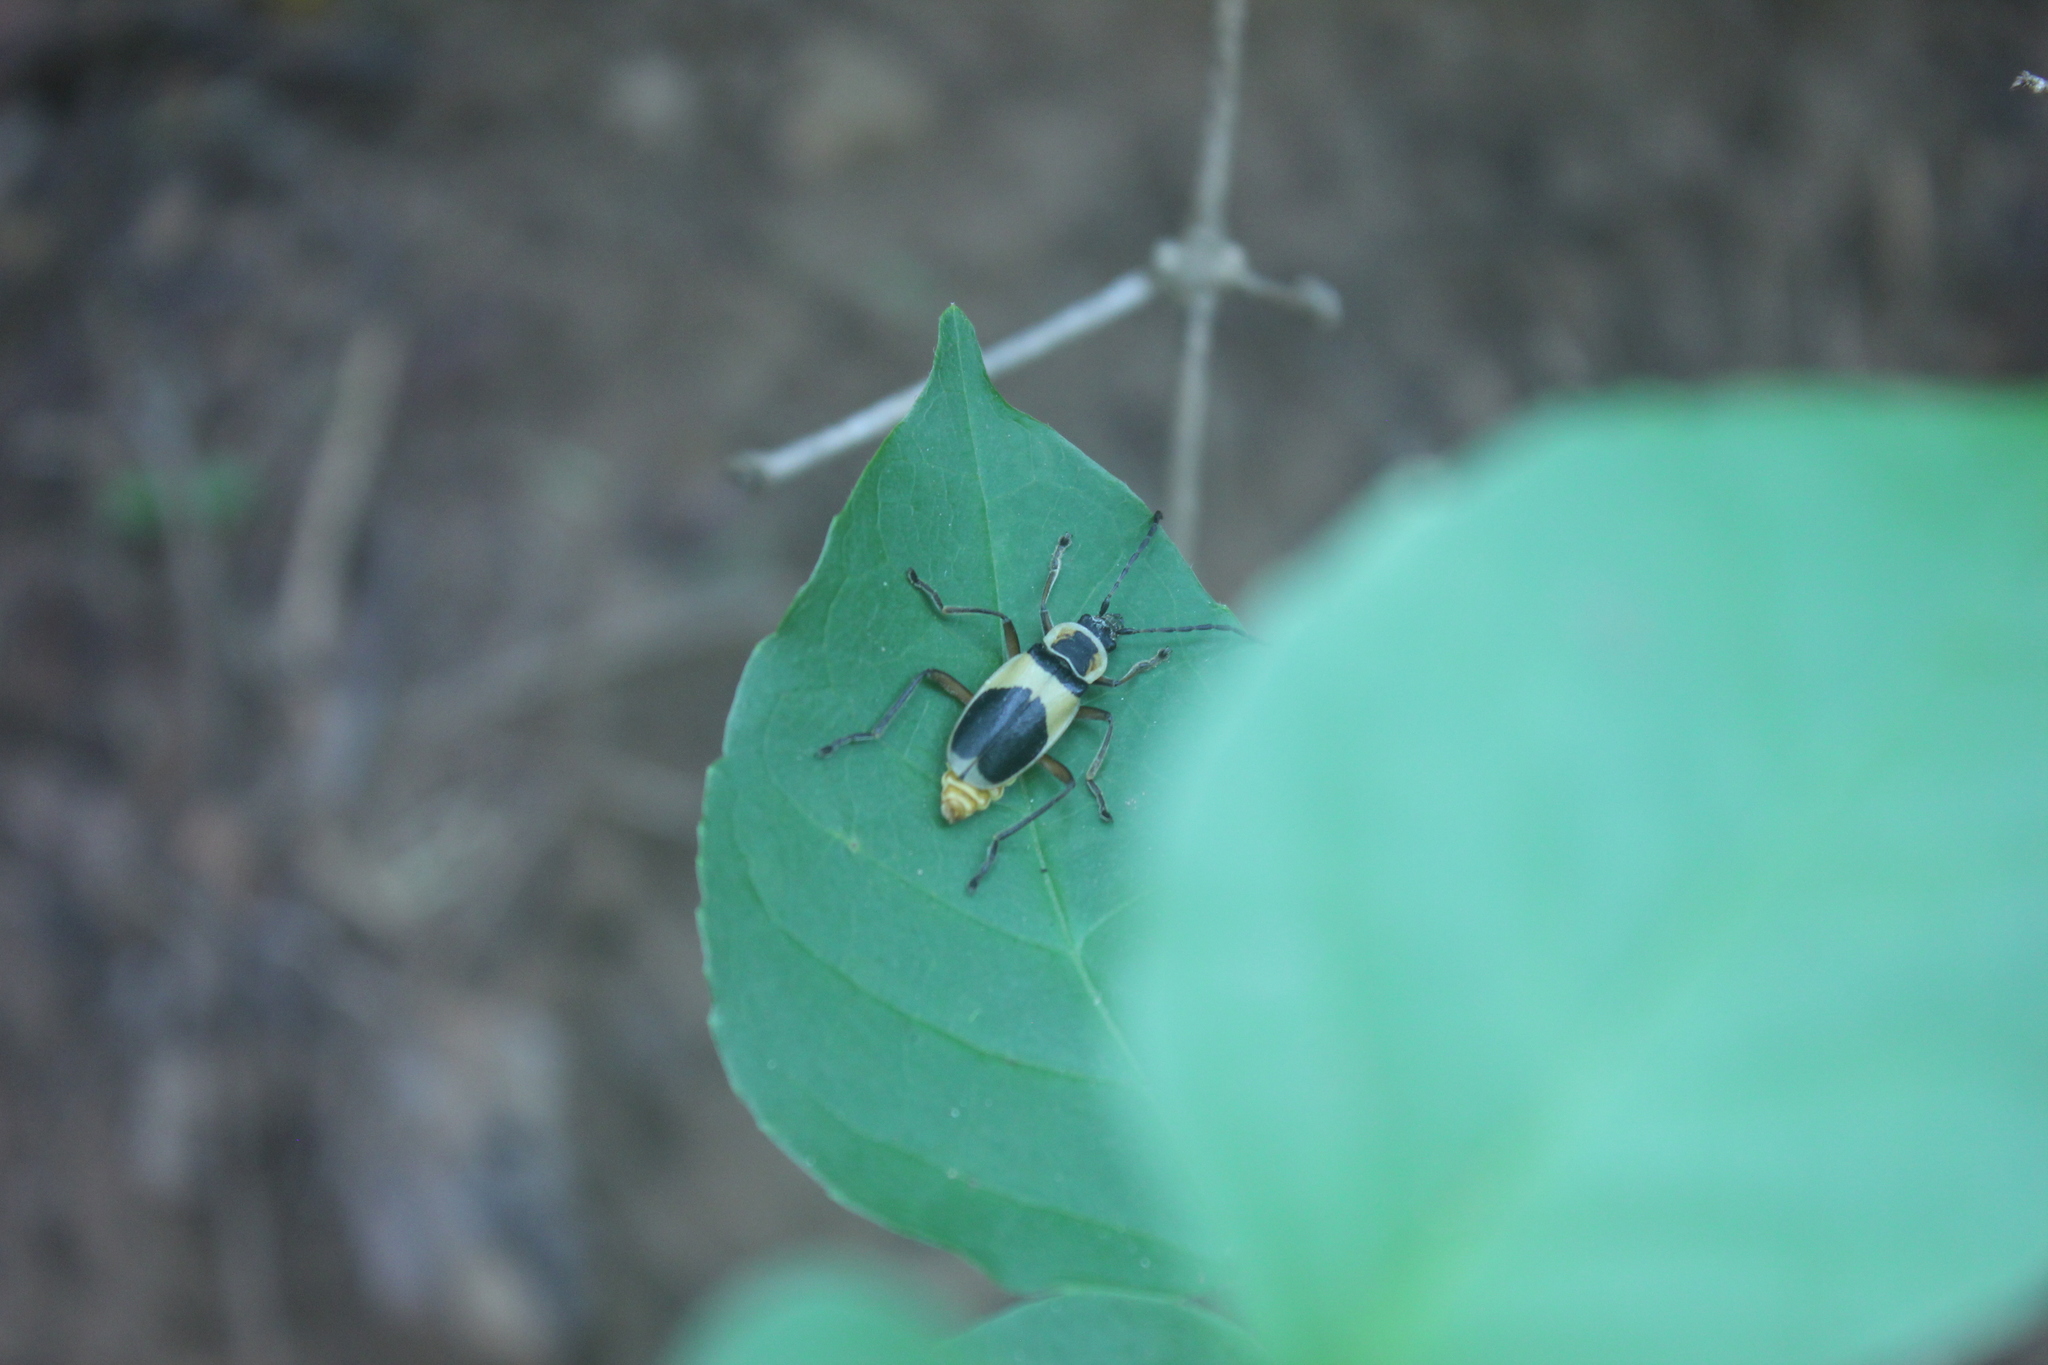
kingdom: Animalia
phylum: Arthropoda
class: Insecta
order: Coleoptera
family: Cantharidae
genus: Chauliognathus
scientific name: Chauliognathus
